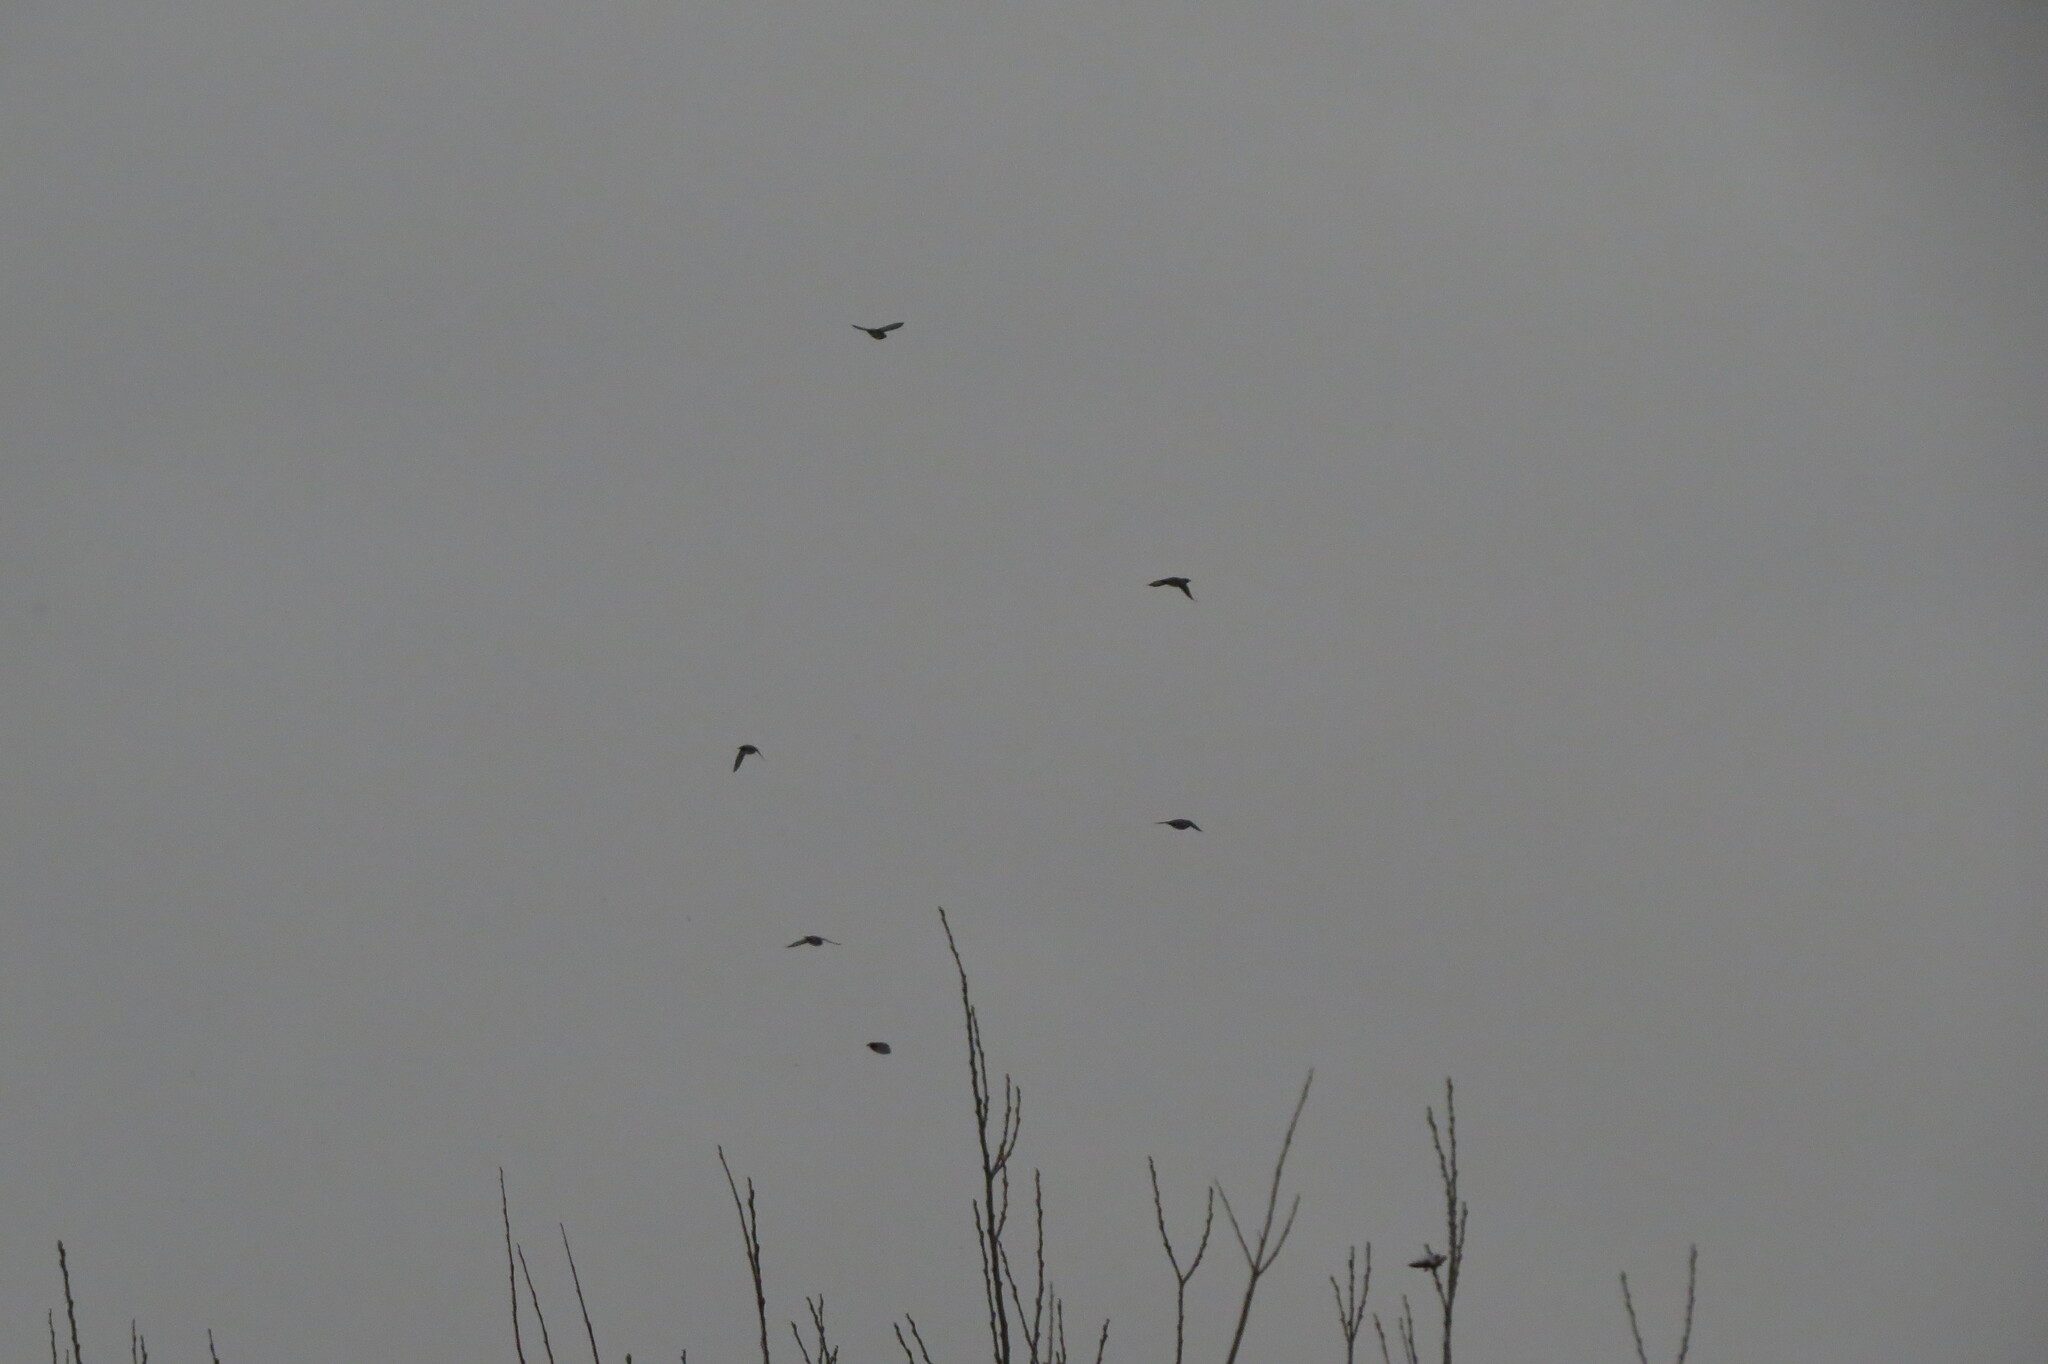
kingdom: Animalia
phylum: Chordata
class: Aves
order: Passeriformes
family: Turdidae
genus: Turdus
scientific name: Turdus pilaris
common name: Fieldfare
